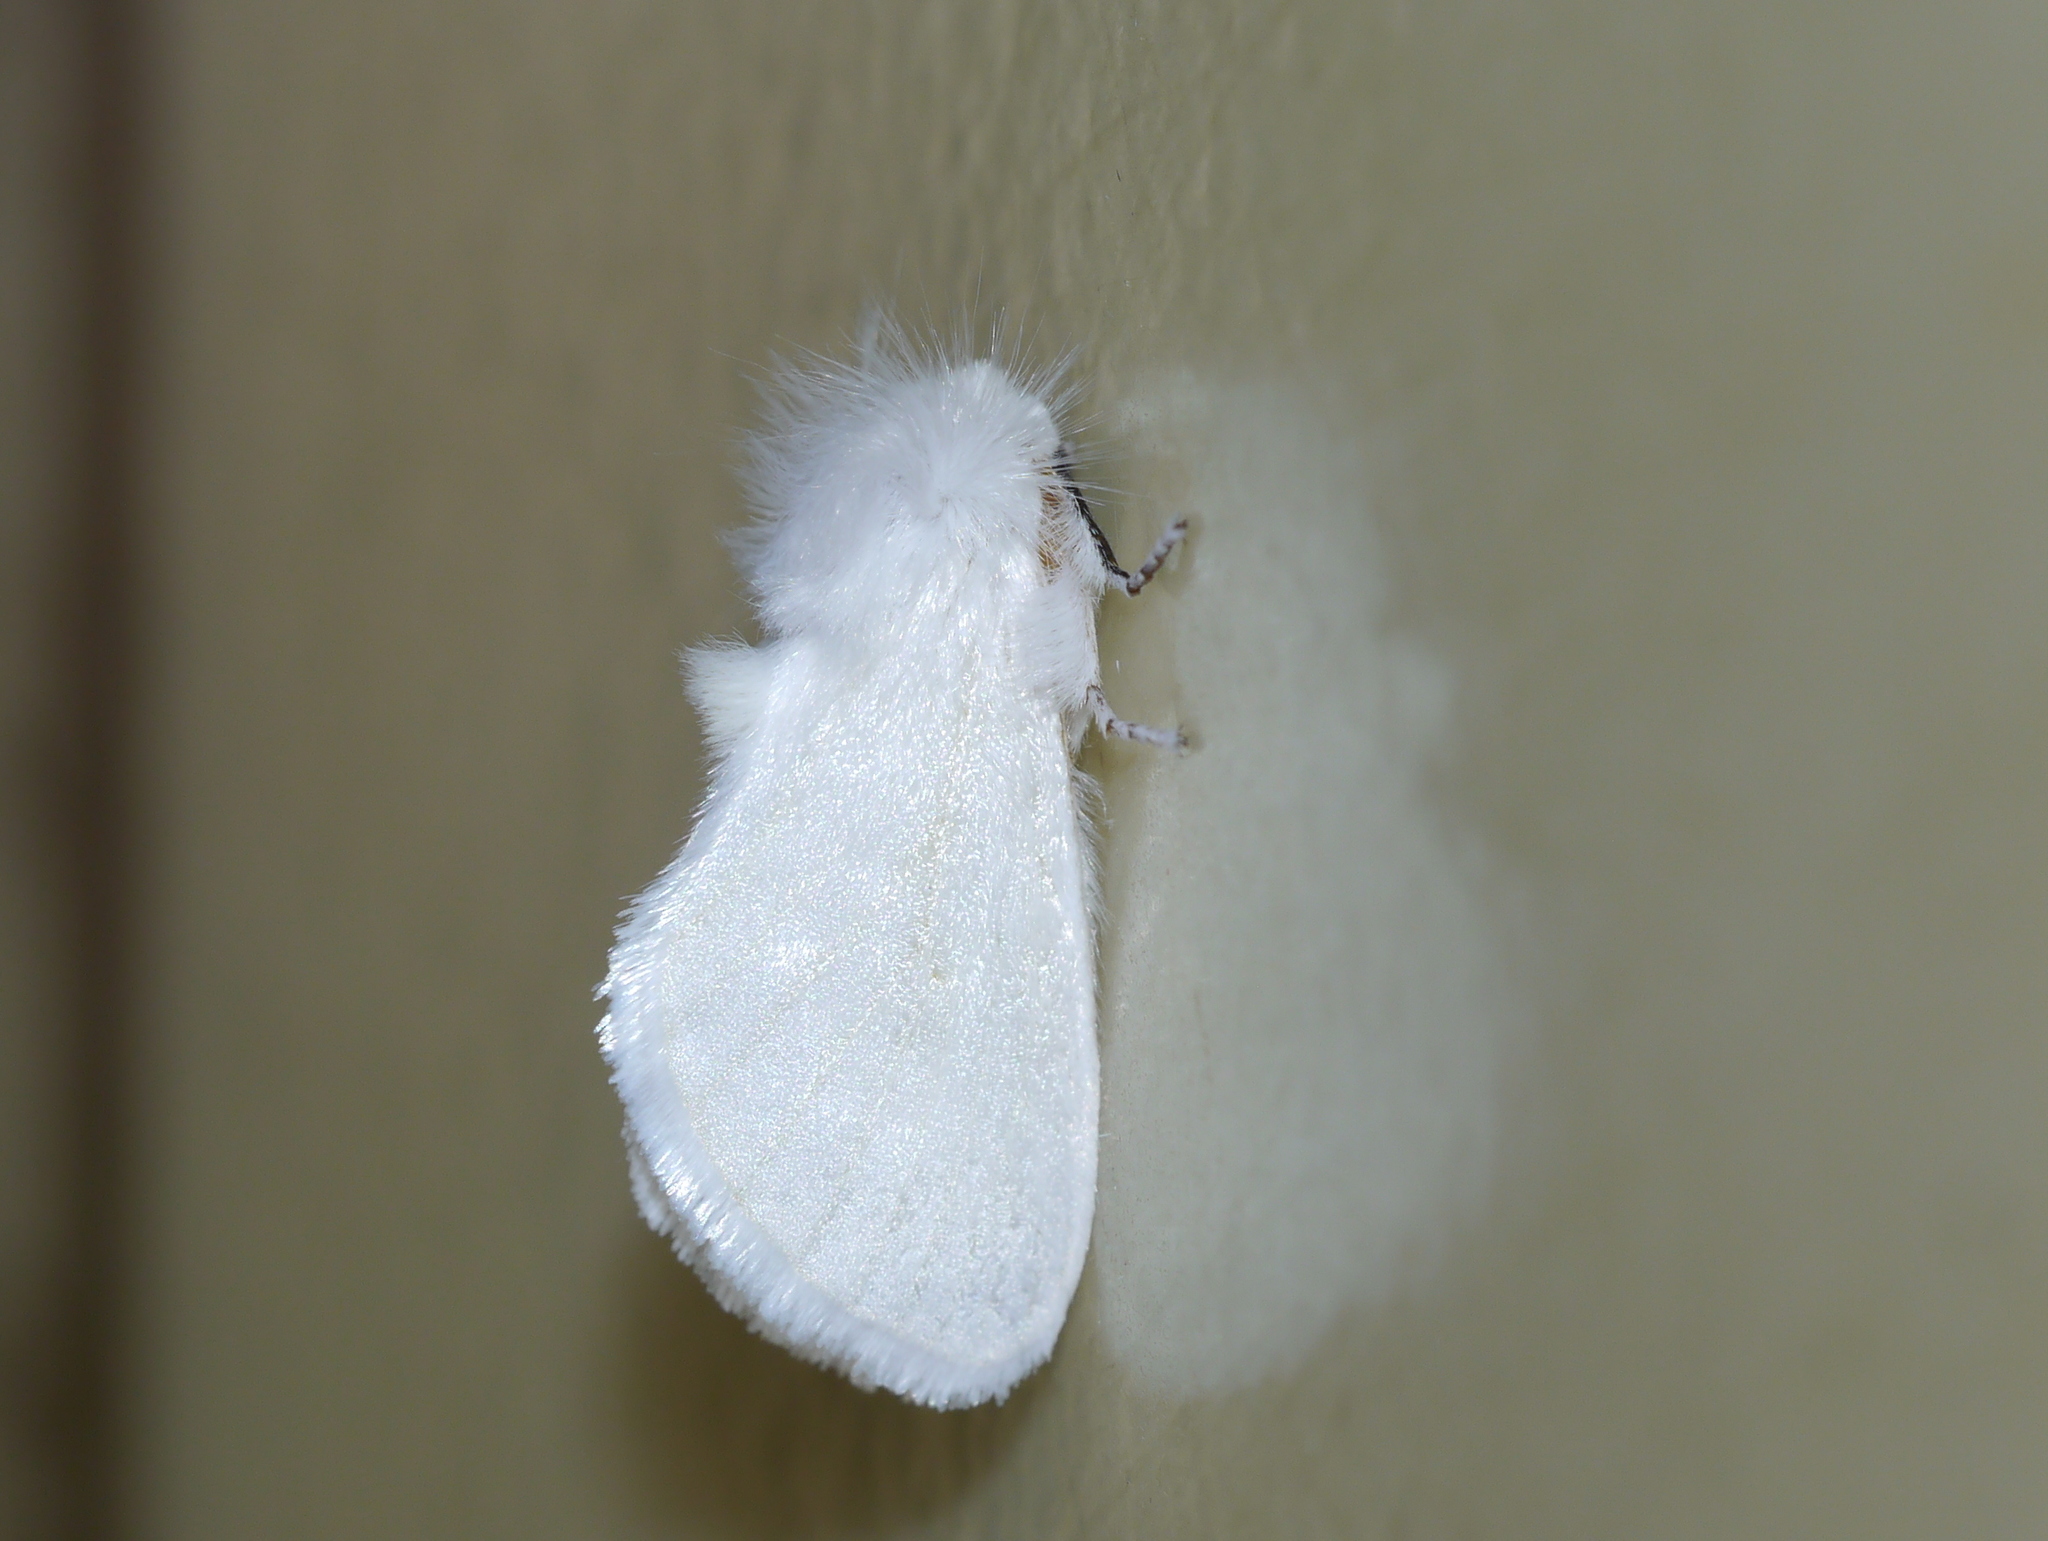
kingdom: Animalia
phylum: Arthropoda
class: Insecta
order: Lepidoptera
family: Megalopygidae
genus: Norape
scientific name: Norape sorpresa
